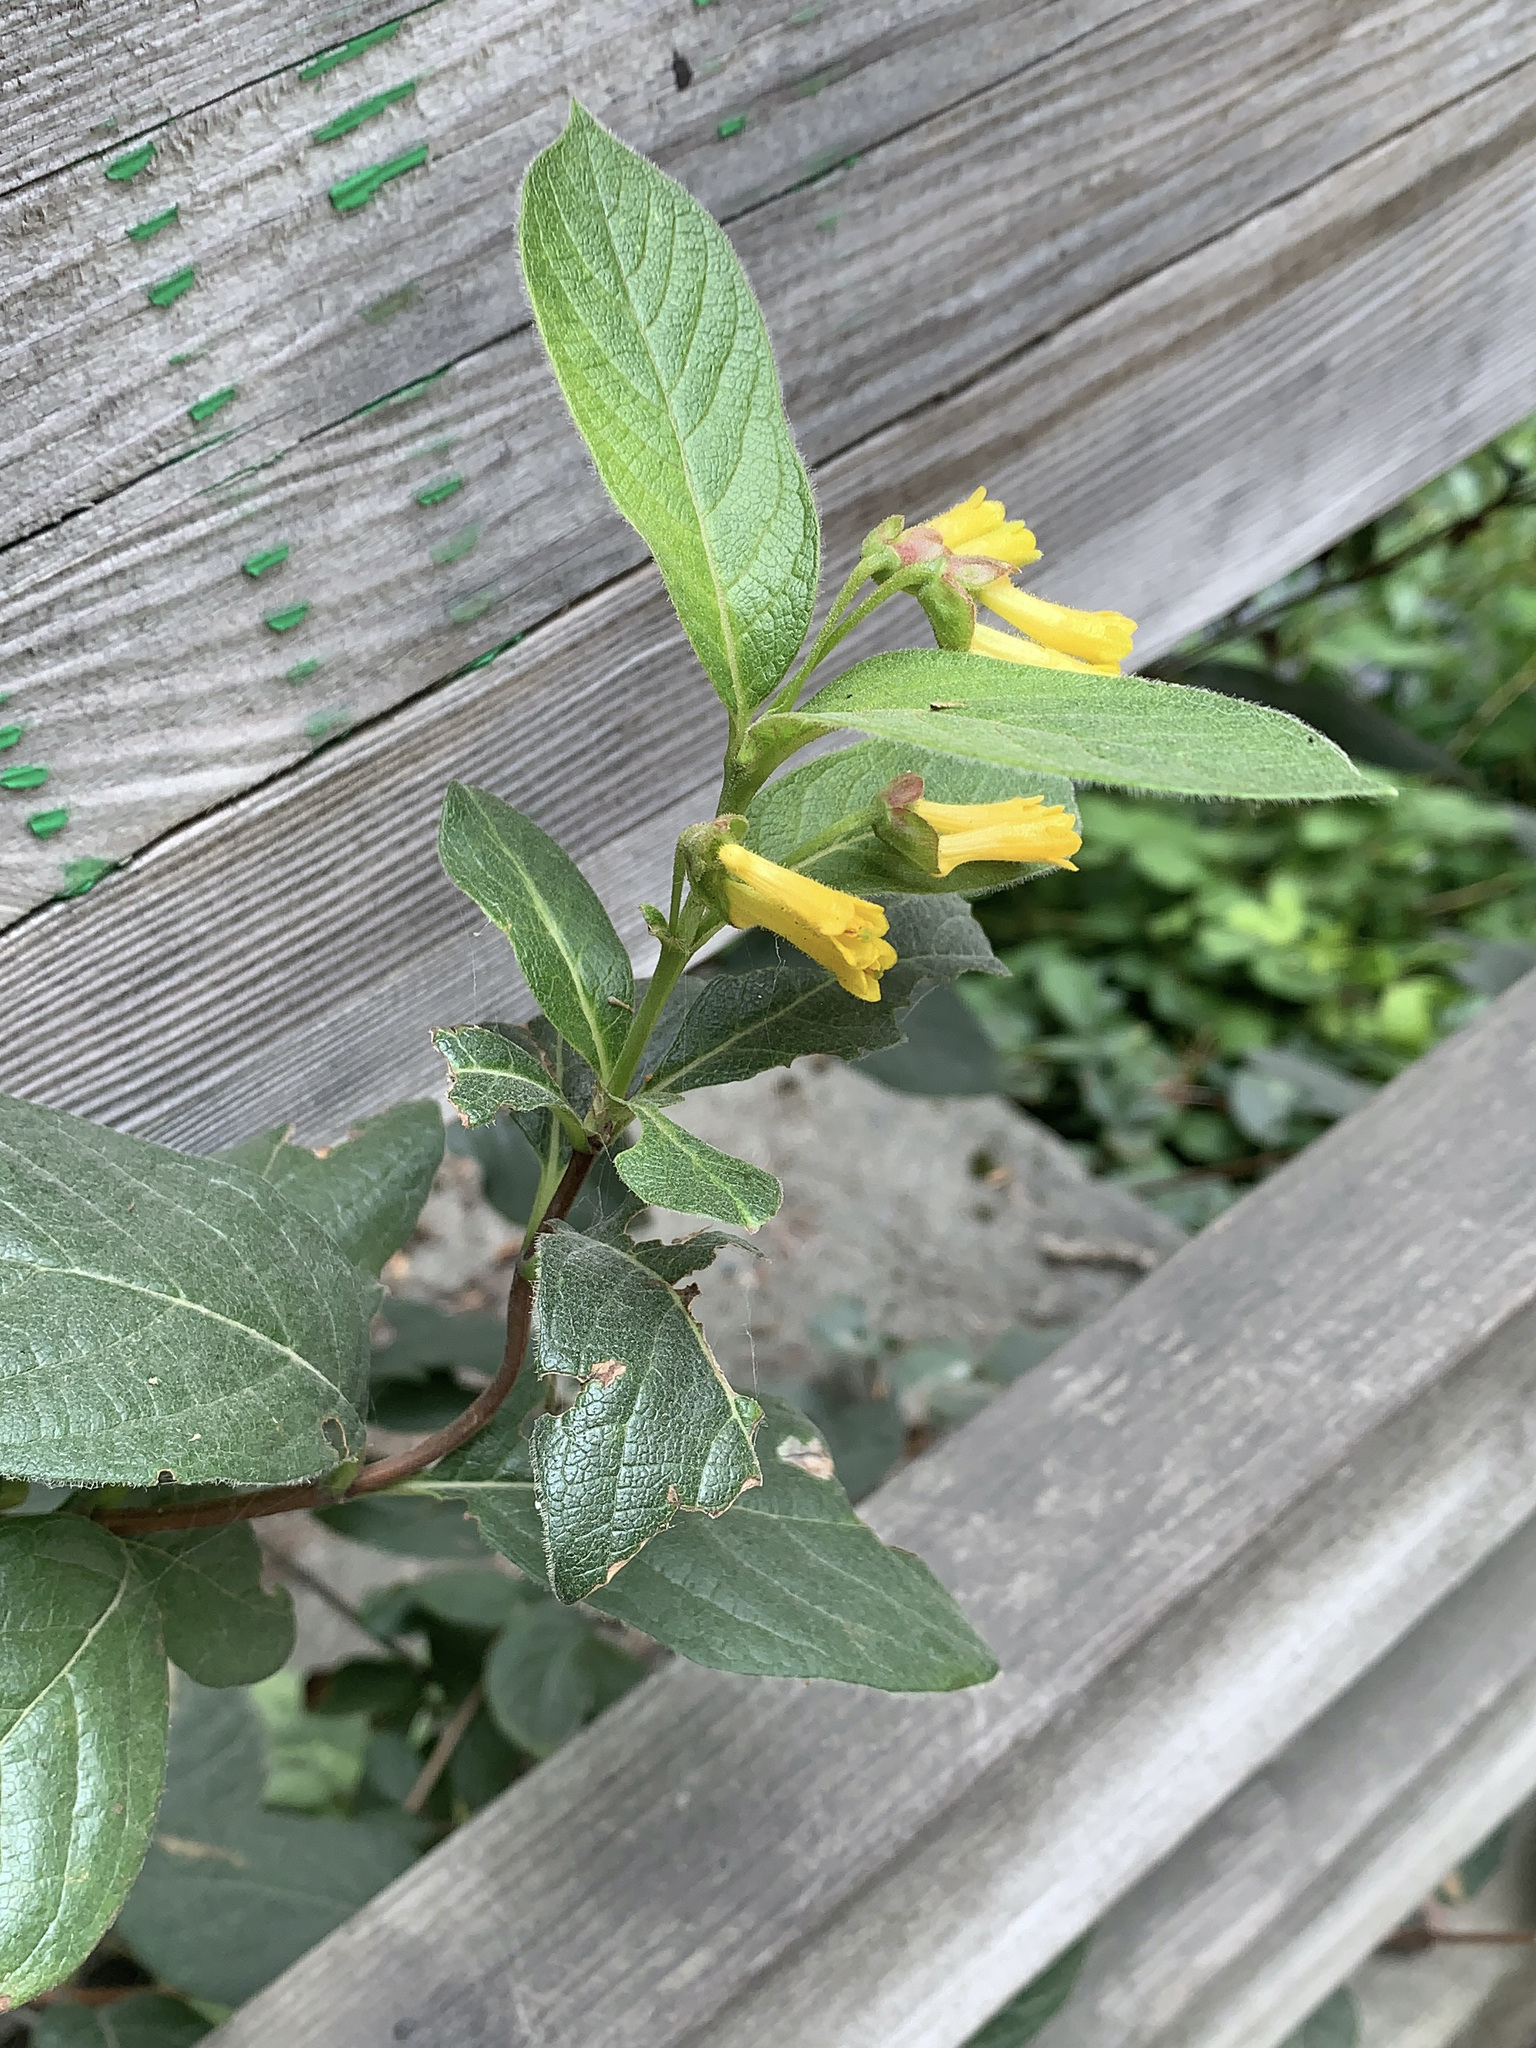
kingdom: Plantae
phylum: Tracheophyta
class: Magnoliopsida
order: Dipsacales
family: Caprifoliaceae
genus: Lonicera
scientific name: Lonicera involucrata
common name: Californian honeysuckle
